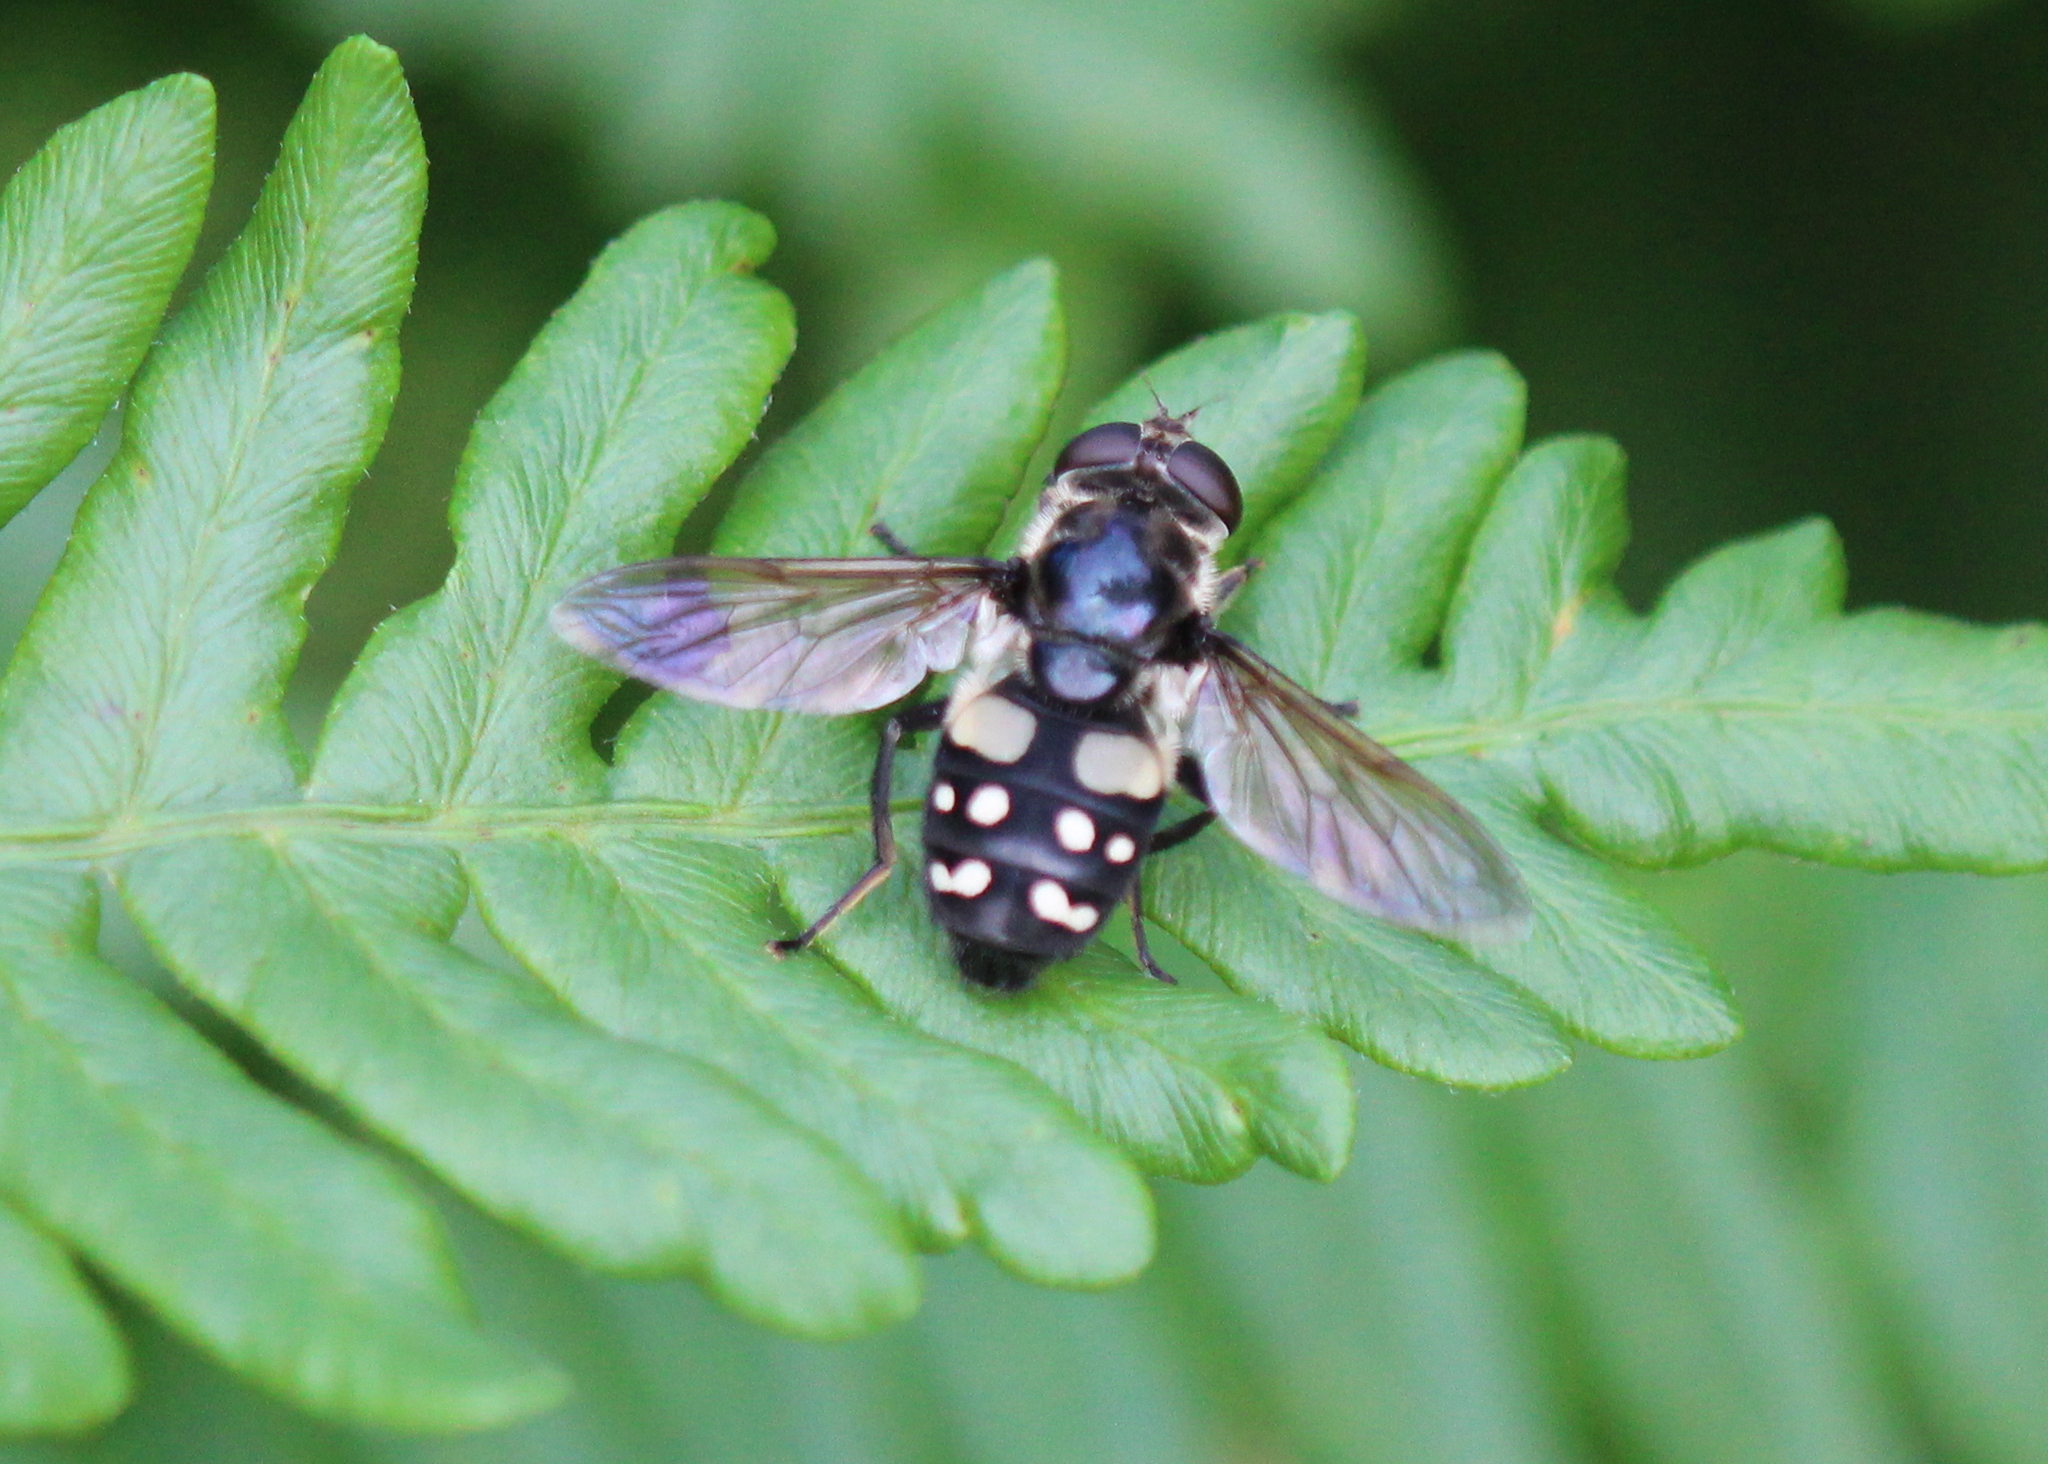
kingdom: Animalia
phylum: Arthropoda
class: Insecta
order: Diptera
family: Syrphidae
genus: Sericomyia
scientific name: Sericomyia lata
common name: White-spotted pond fly
